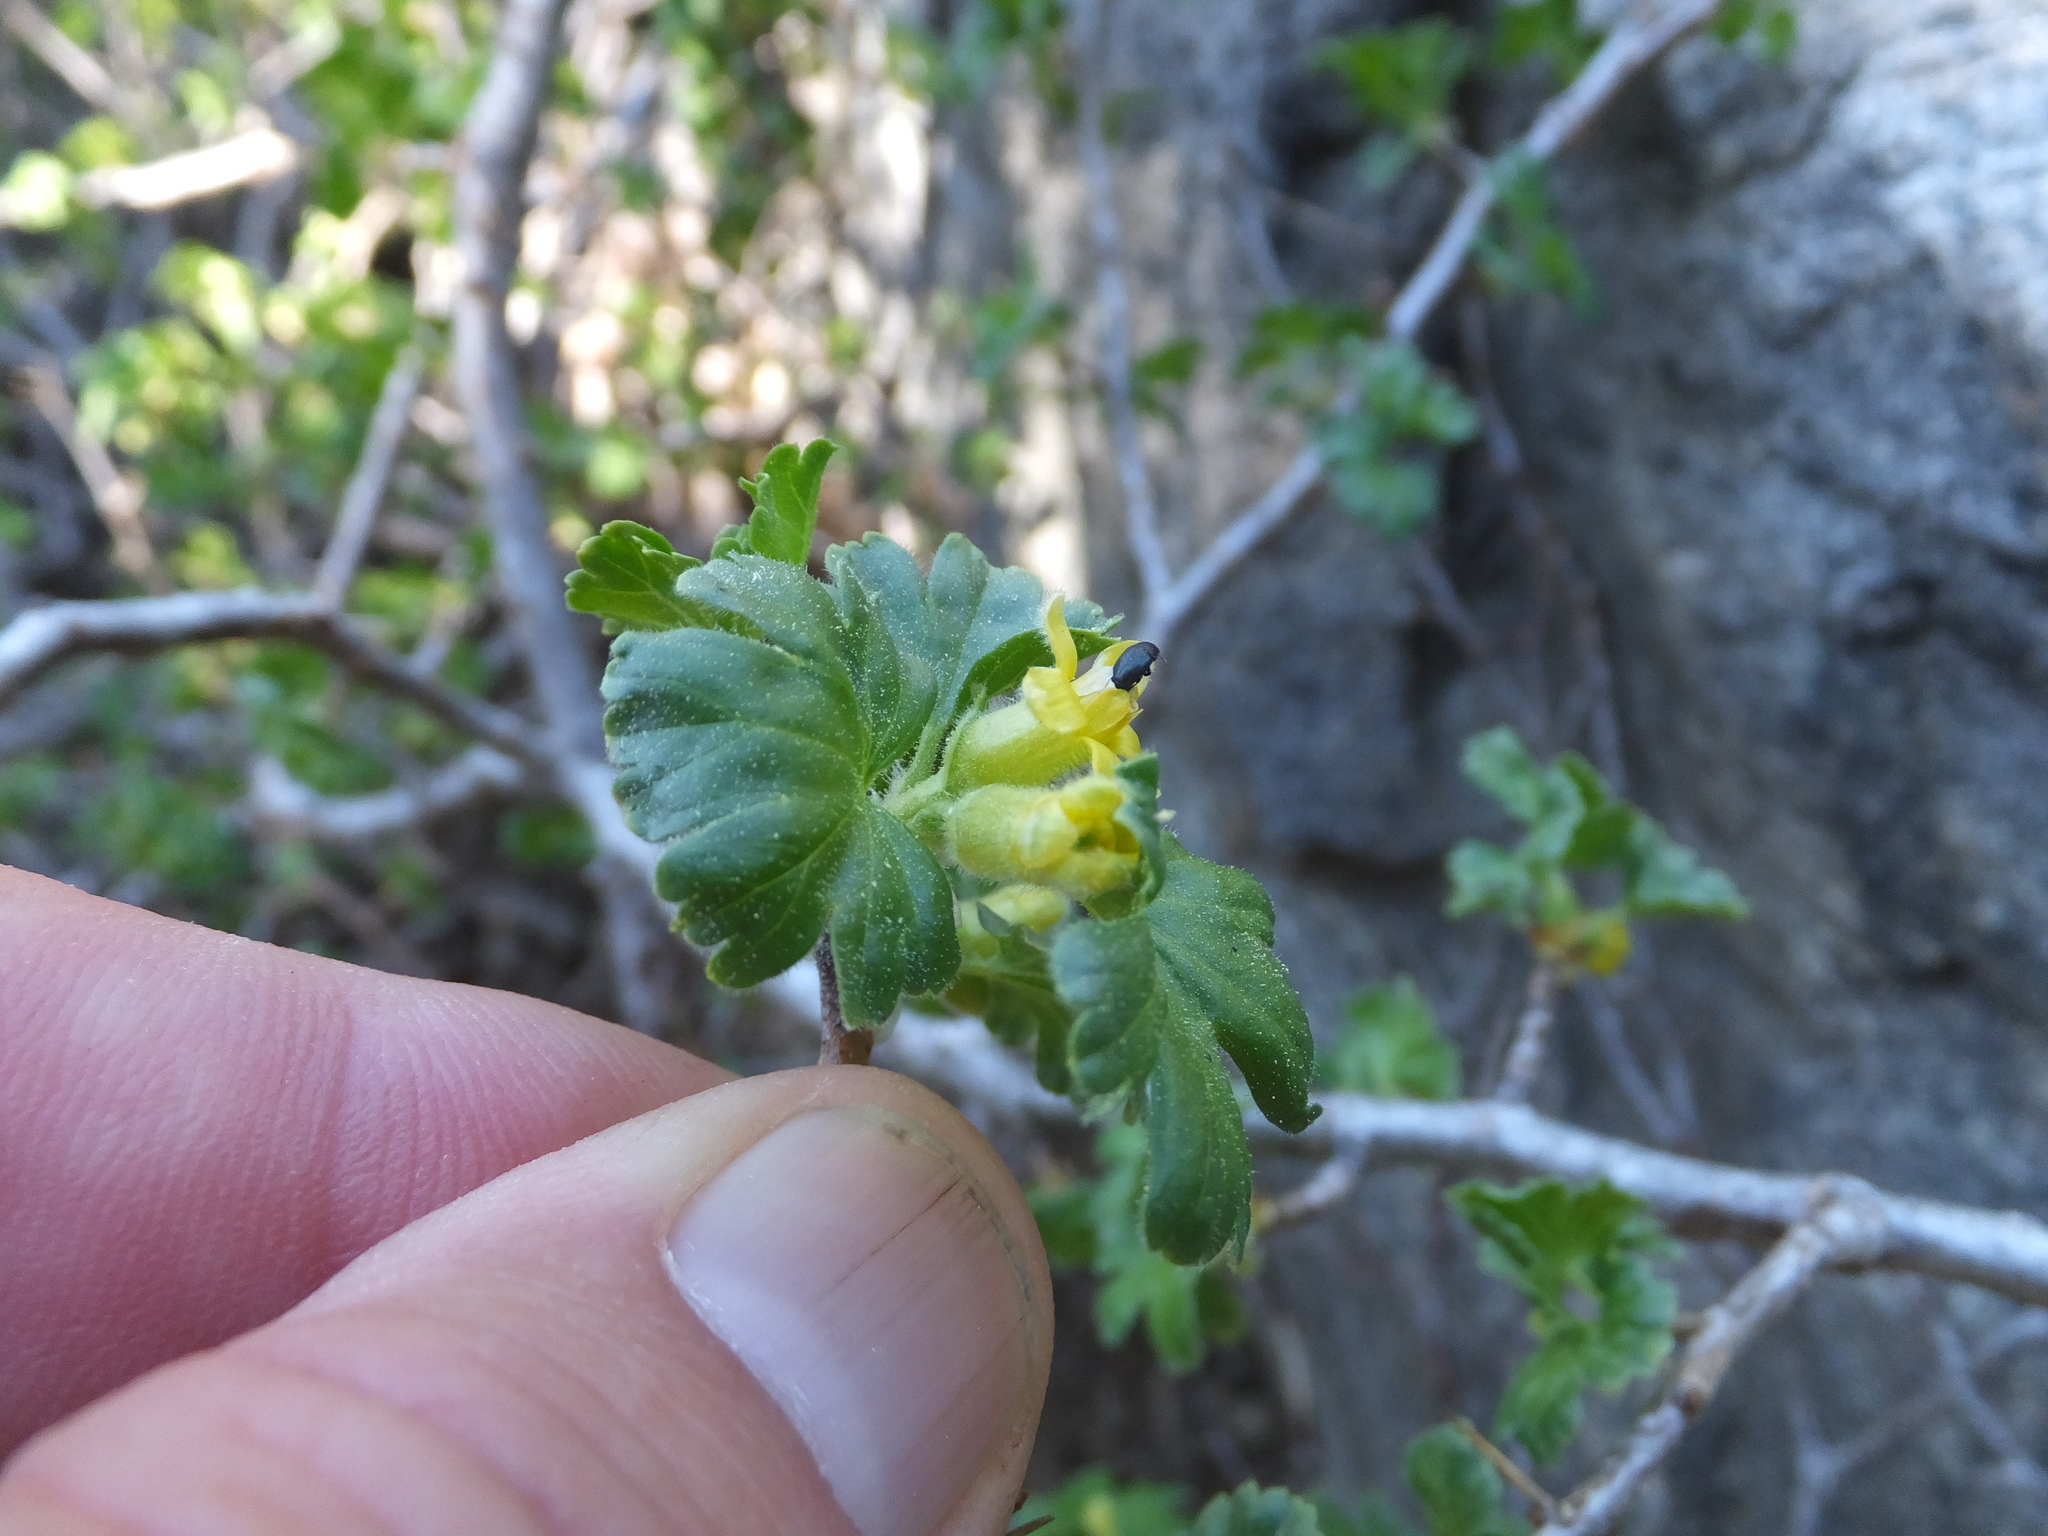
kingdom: Plantae
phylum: Tracheophyta
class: Magnoliopsida
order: Saxifragales
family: Grossulariaceae
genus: Ribes
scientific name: Ribes lasianthum
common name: Alpine gooseberry
